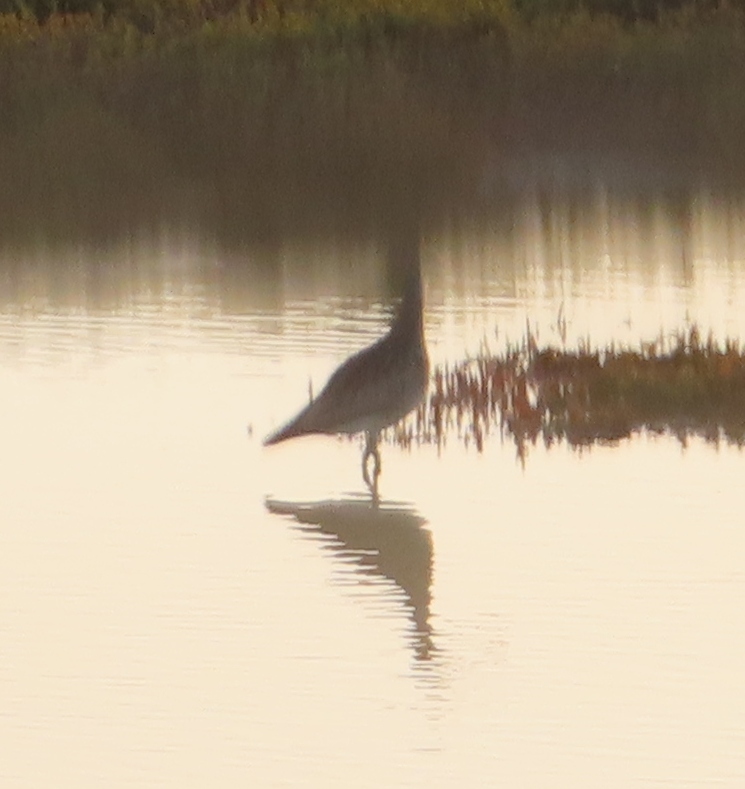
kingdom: Animalia
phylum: Chordata
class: Aves
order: Charadriiformes
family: Scolopacidae
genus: Numenius
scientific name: Numenius phaeopus
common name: Whimbrel
